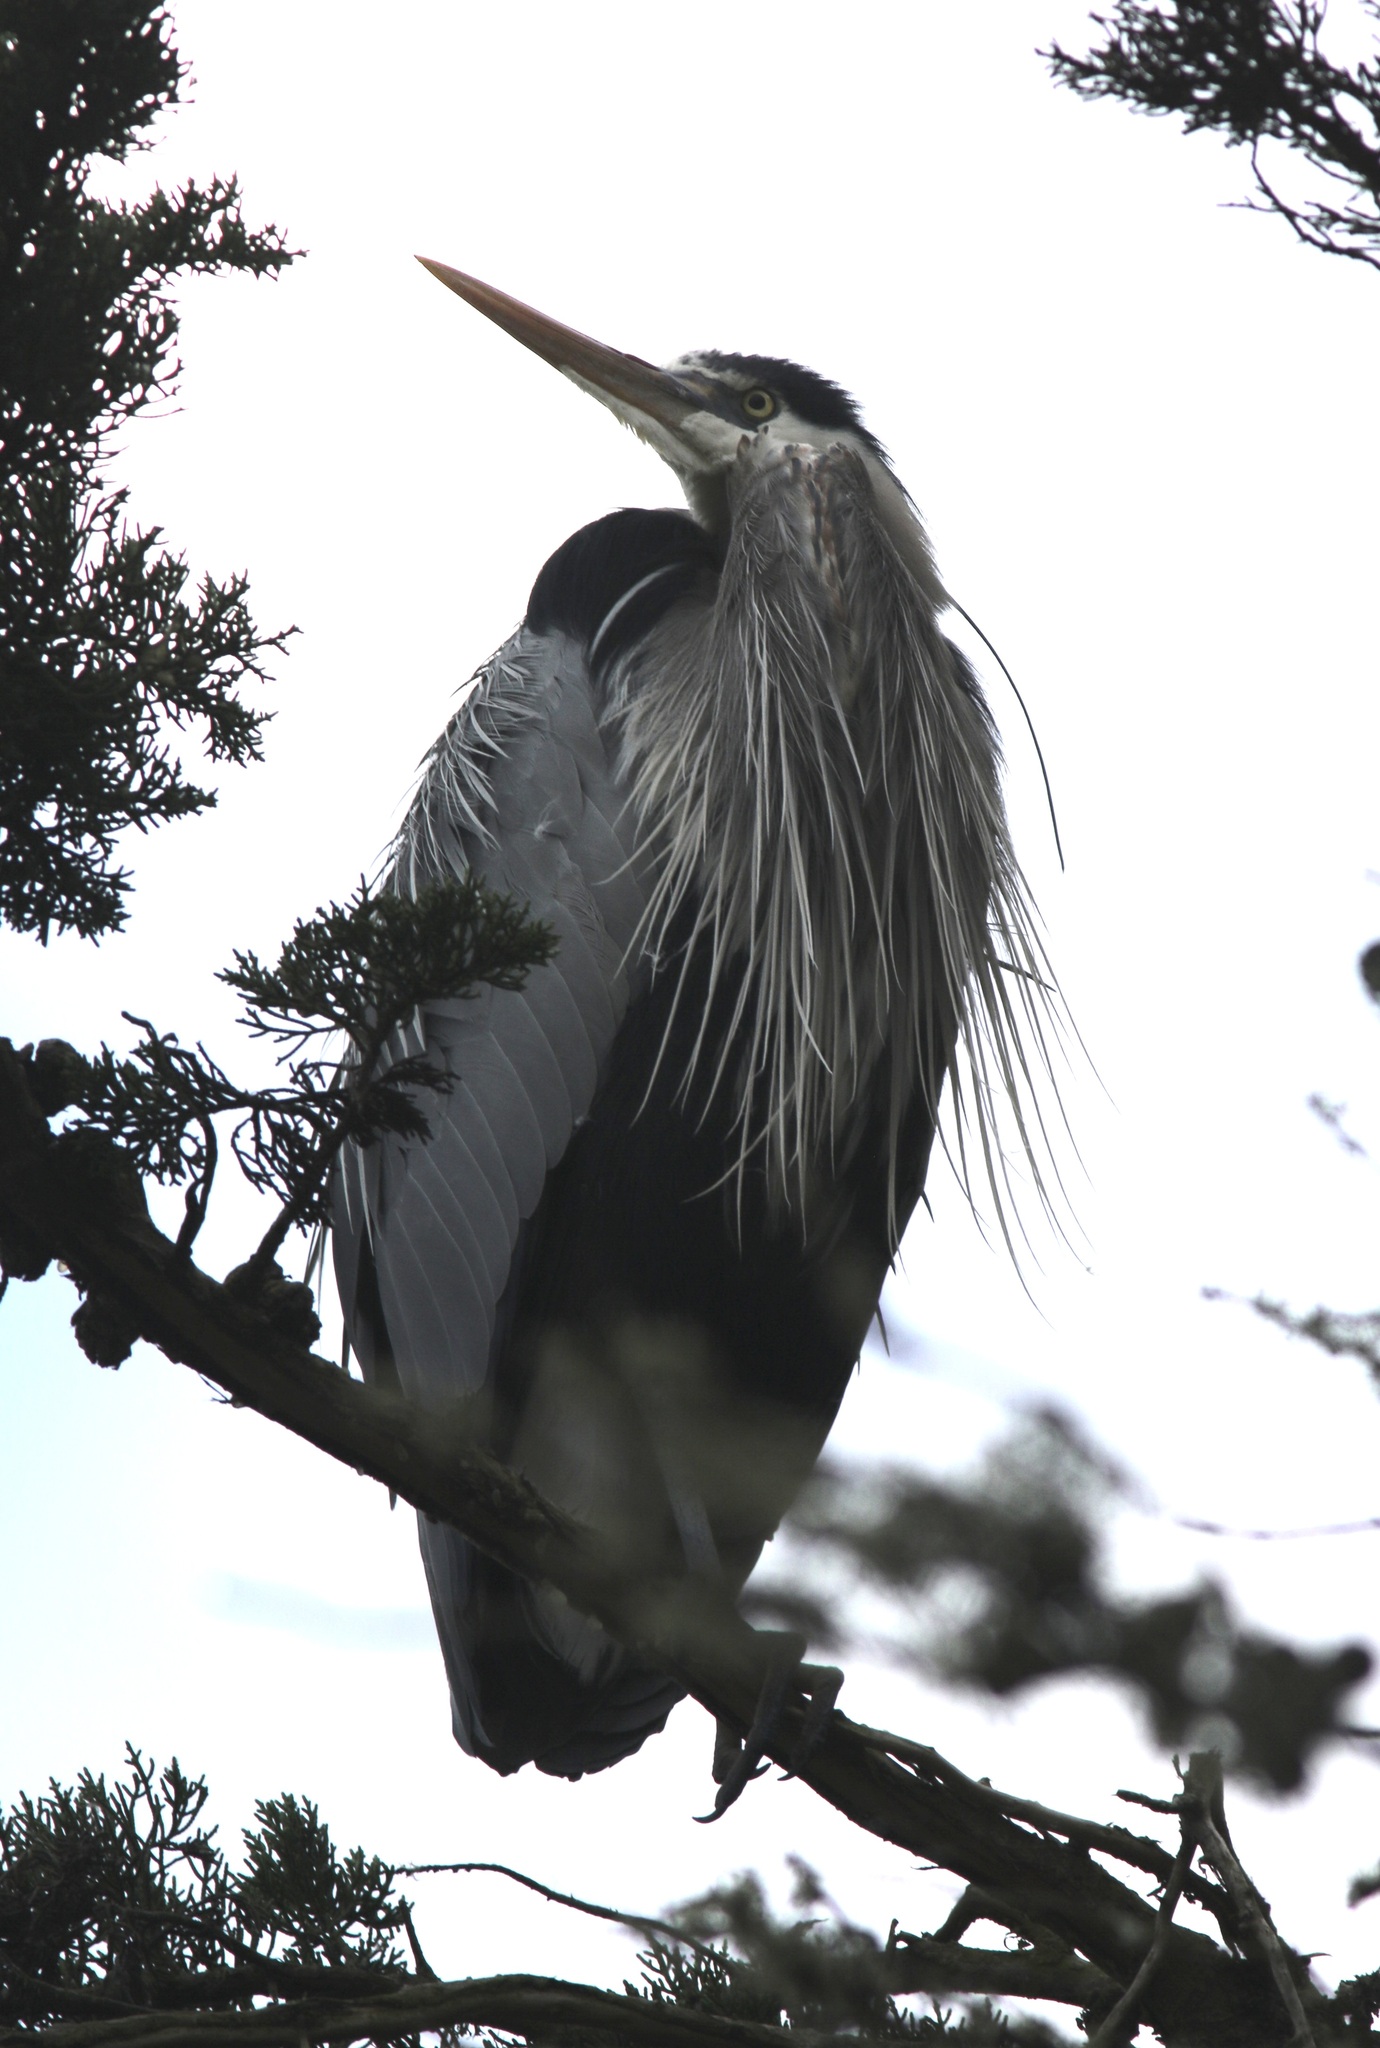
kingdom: Animalia
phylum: Chordata
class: Aves
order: Pelecaniformes
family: Ardeidae
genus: Ardea
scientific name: Ardea herodias
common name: Great blue heron
